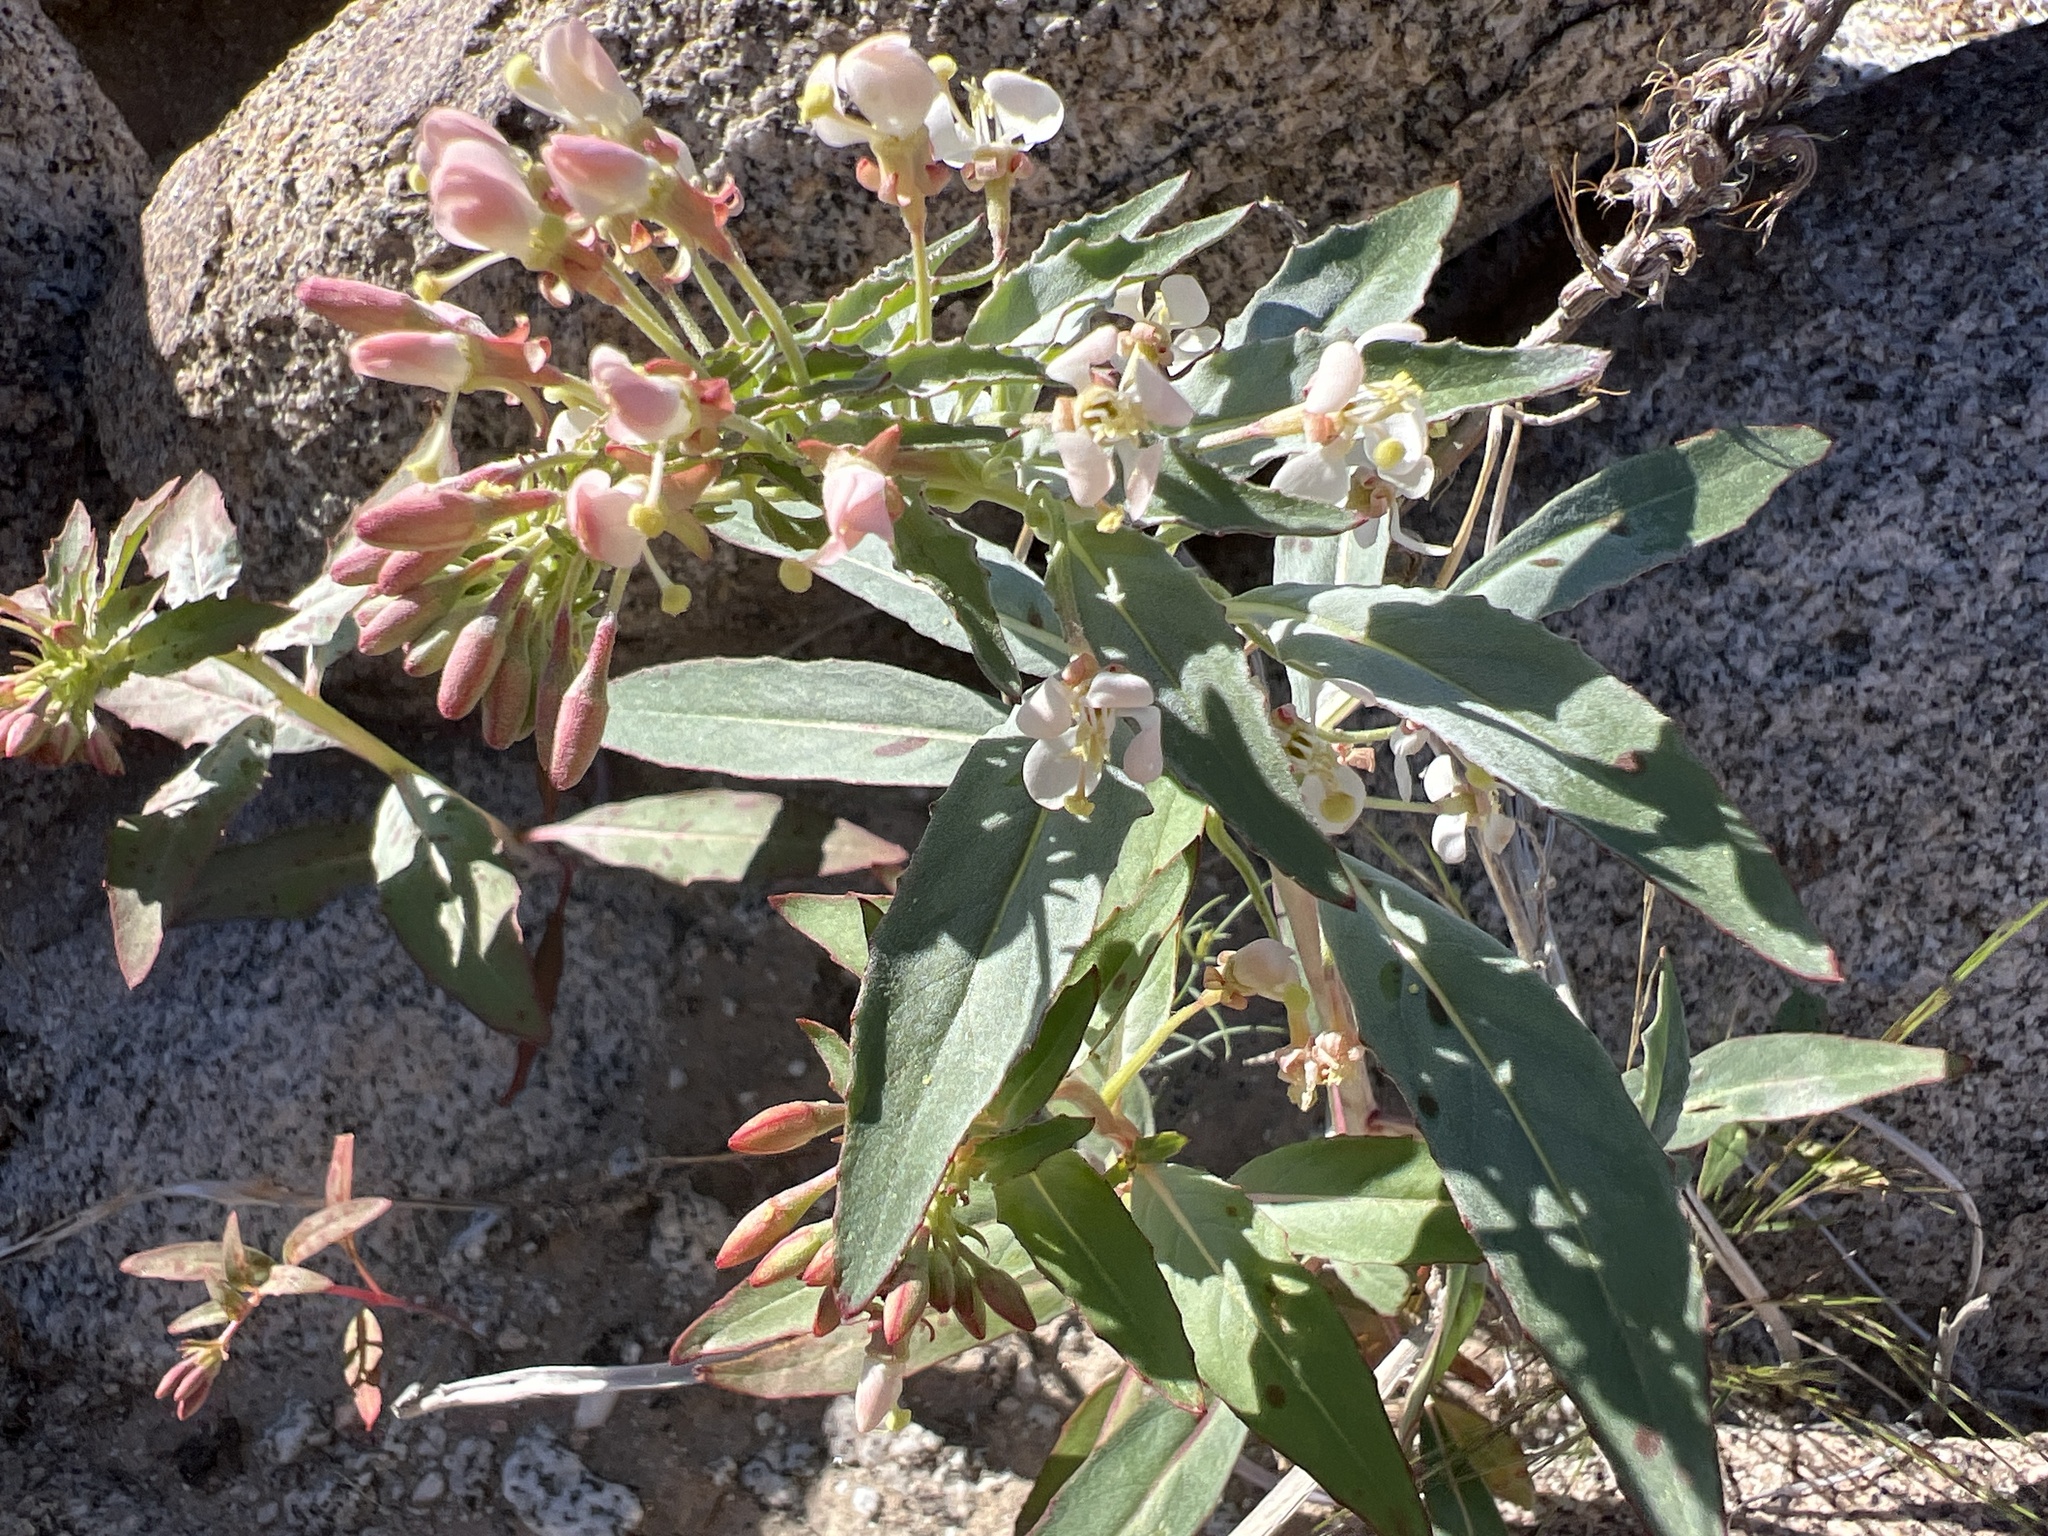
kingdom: Plantae
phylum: Tracheophyta
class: Magnoliopsida
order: Myrtales
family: Onagraceae
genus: Eremothera
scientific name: Eremothera boothii
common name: Booth's evening primrose
